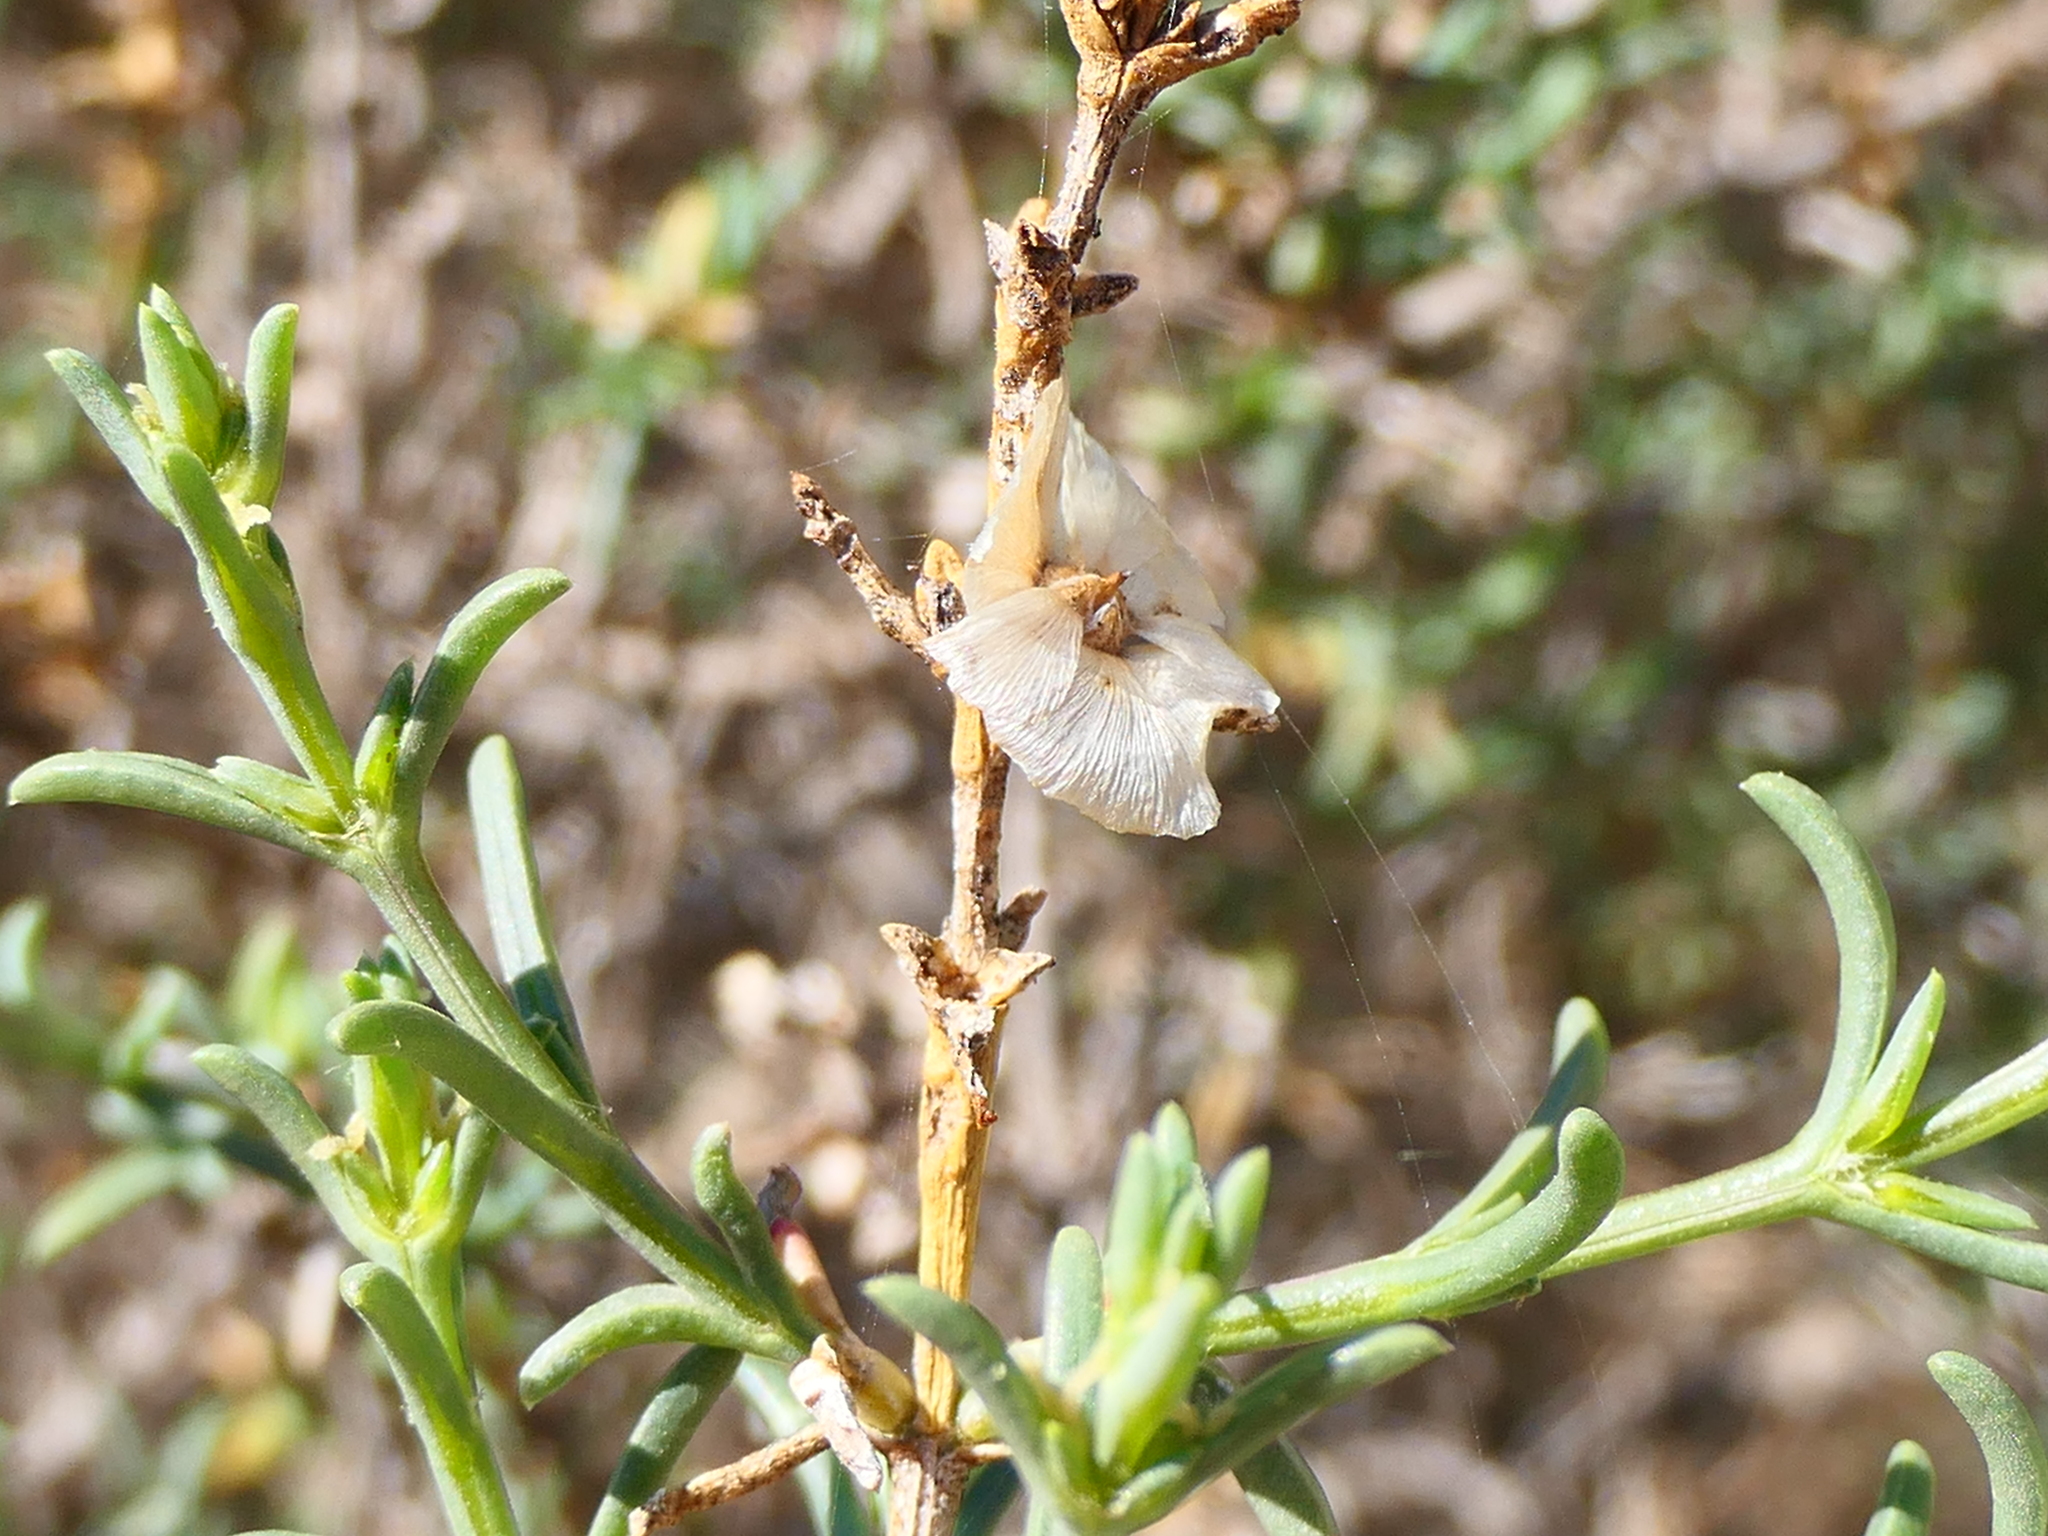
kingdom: Plantae
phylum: Tracheophyta
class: Magnoliopsida
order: Caryophyllales
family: Amaranthaceae
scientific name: Amaranthaceae
